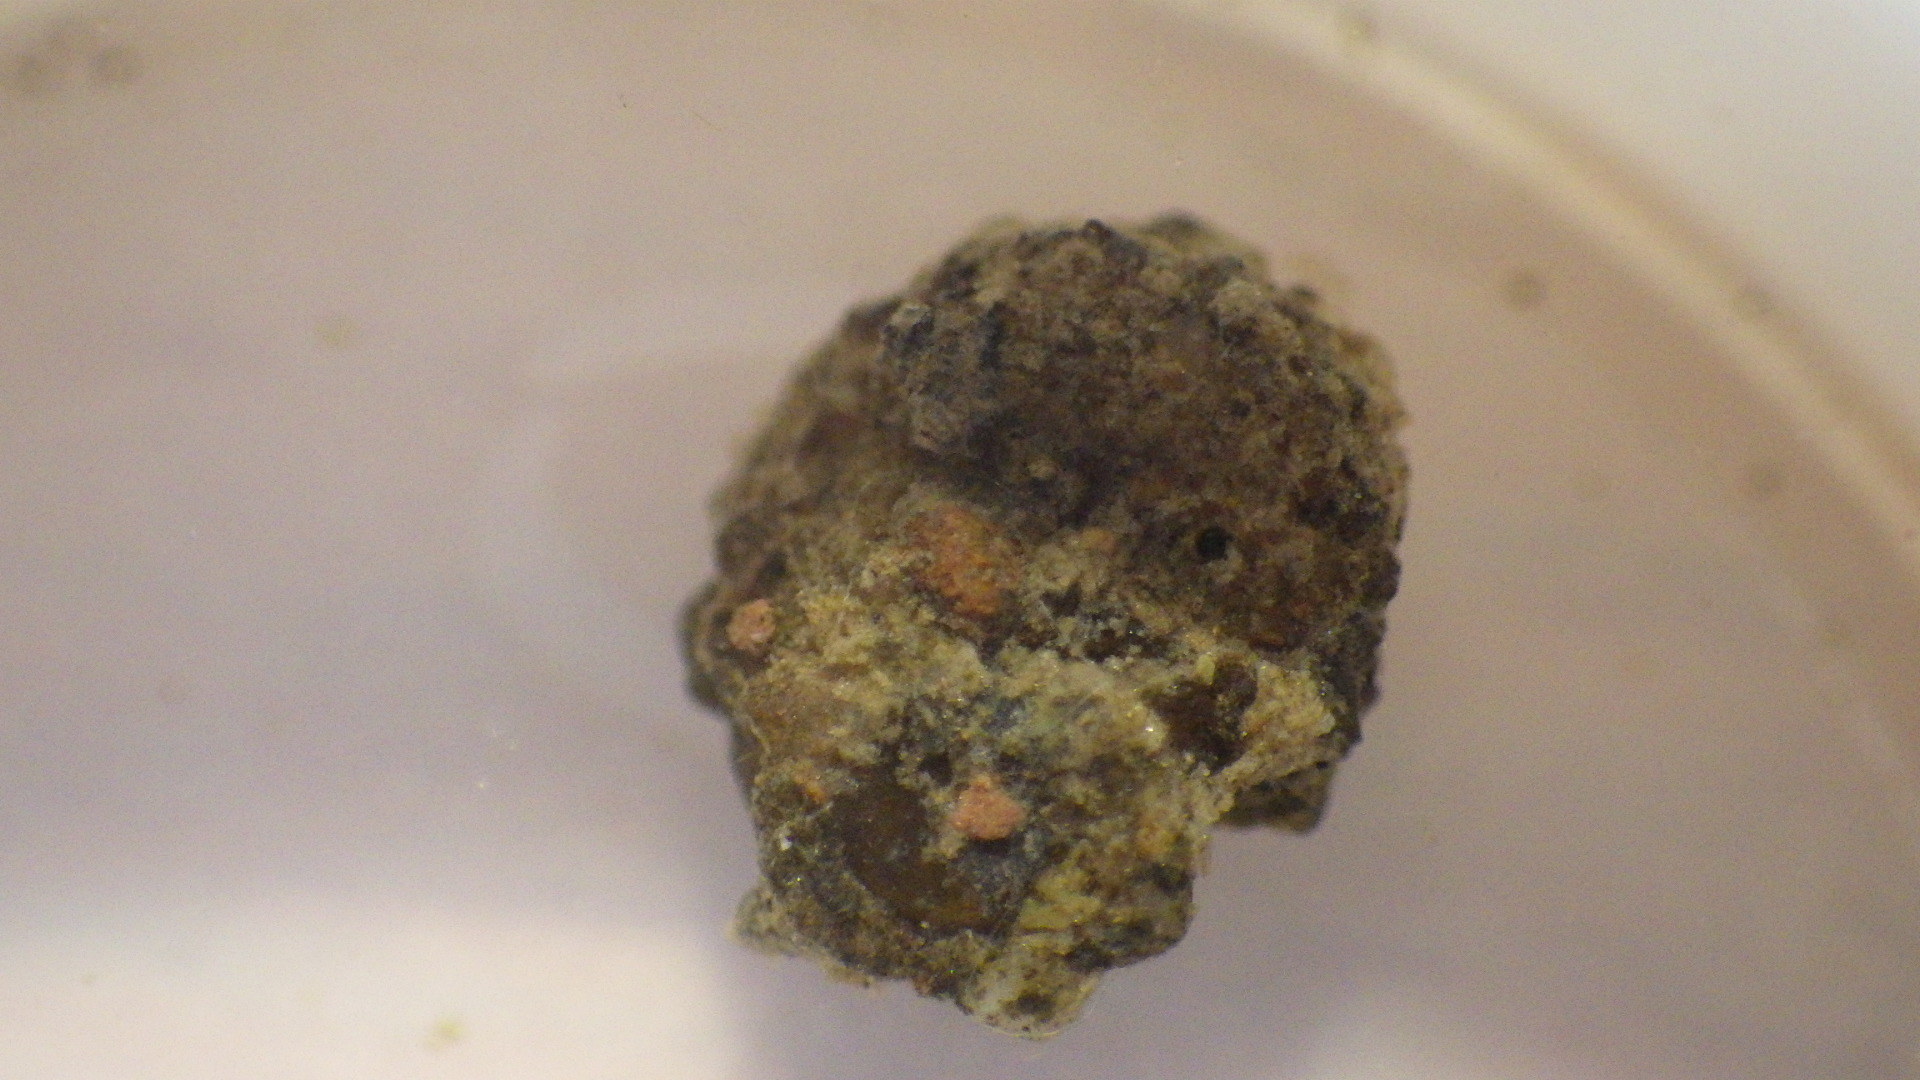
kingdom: Animalia
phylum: Arthropoda
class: Insecta
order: Trichoptera
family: Helicopsychidae
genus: Helicopsyche
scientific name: Helicopsyche borealis
